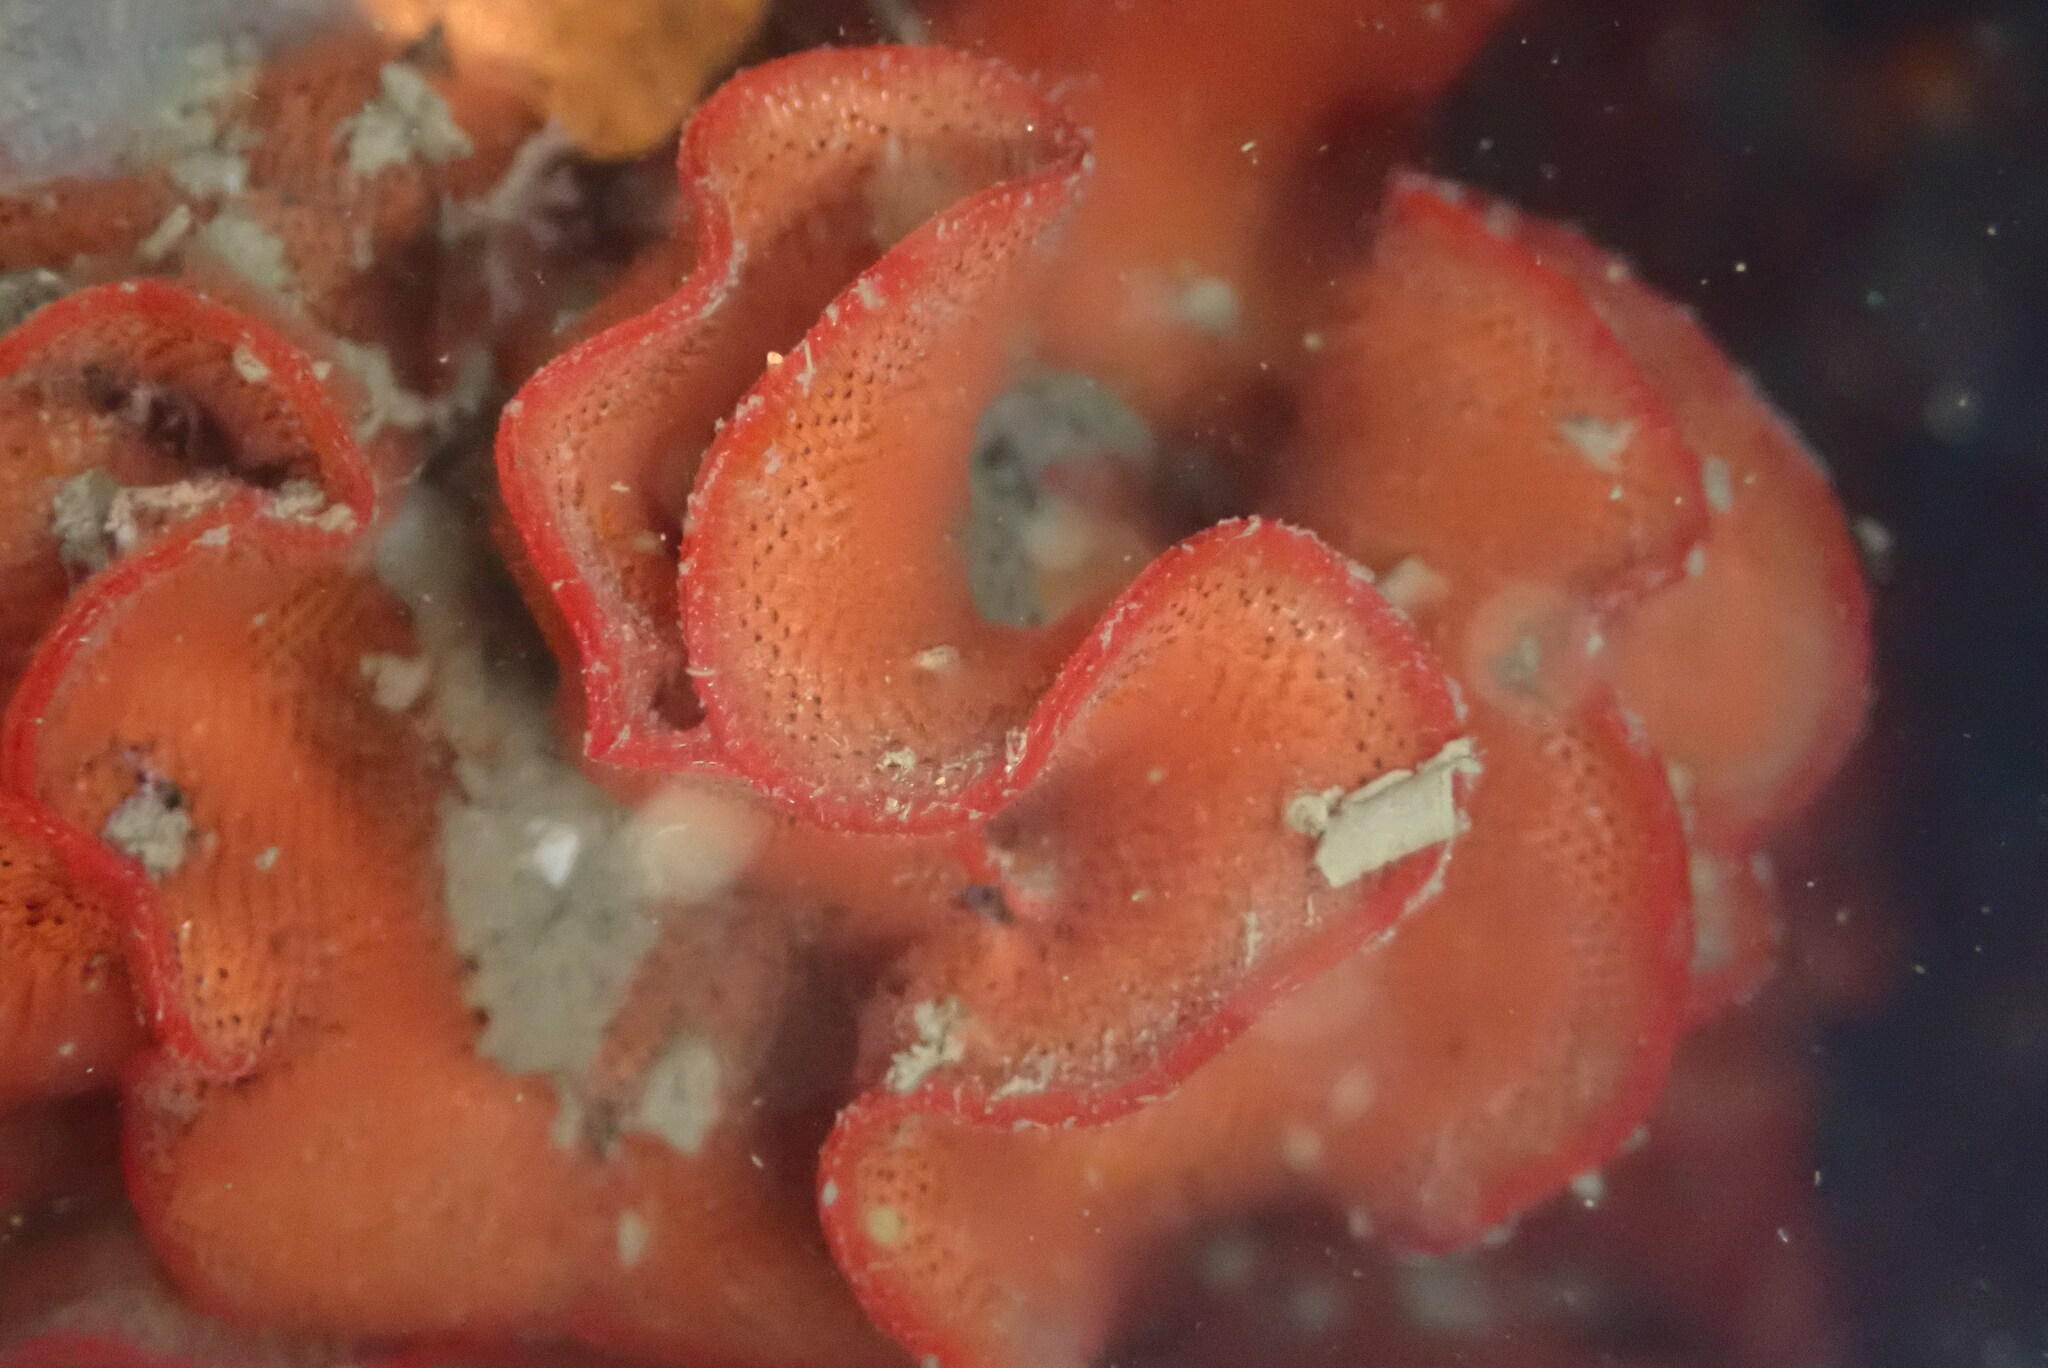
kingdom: Animalia
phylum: Bryozoa
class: Gymnolaemata
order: Cheilostomatida
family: Watersiporidae
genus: Watersipora
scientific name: Watersipora subtorquata
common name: Bryozoan
